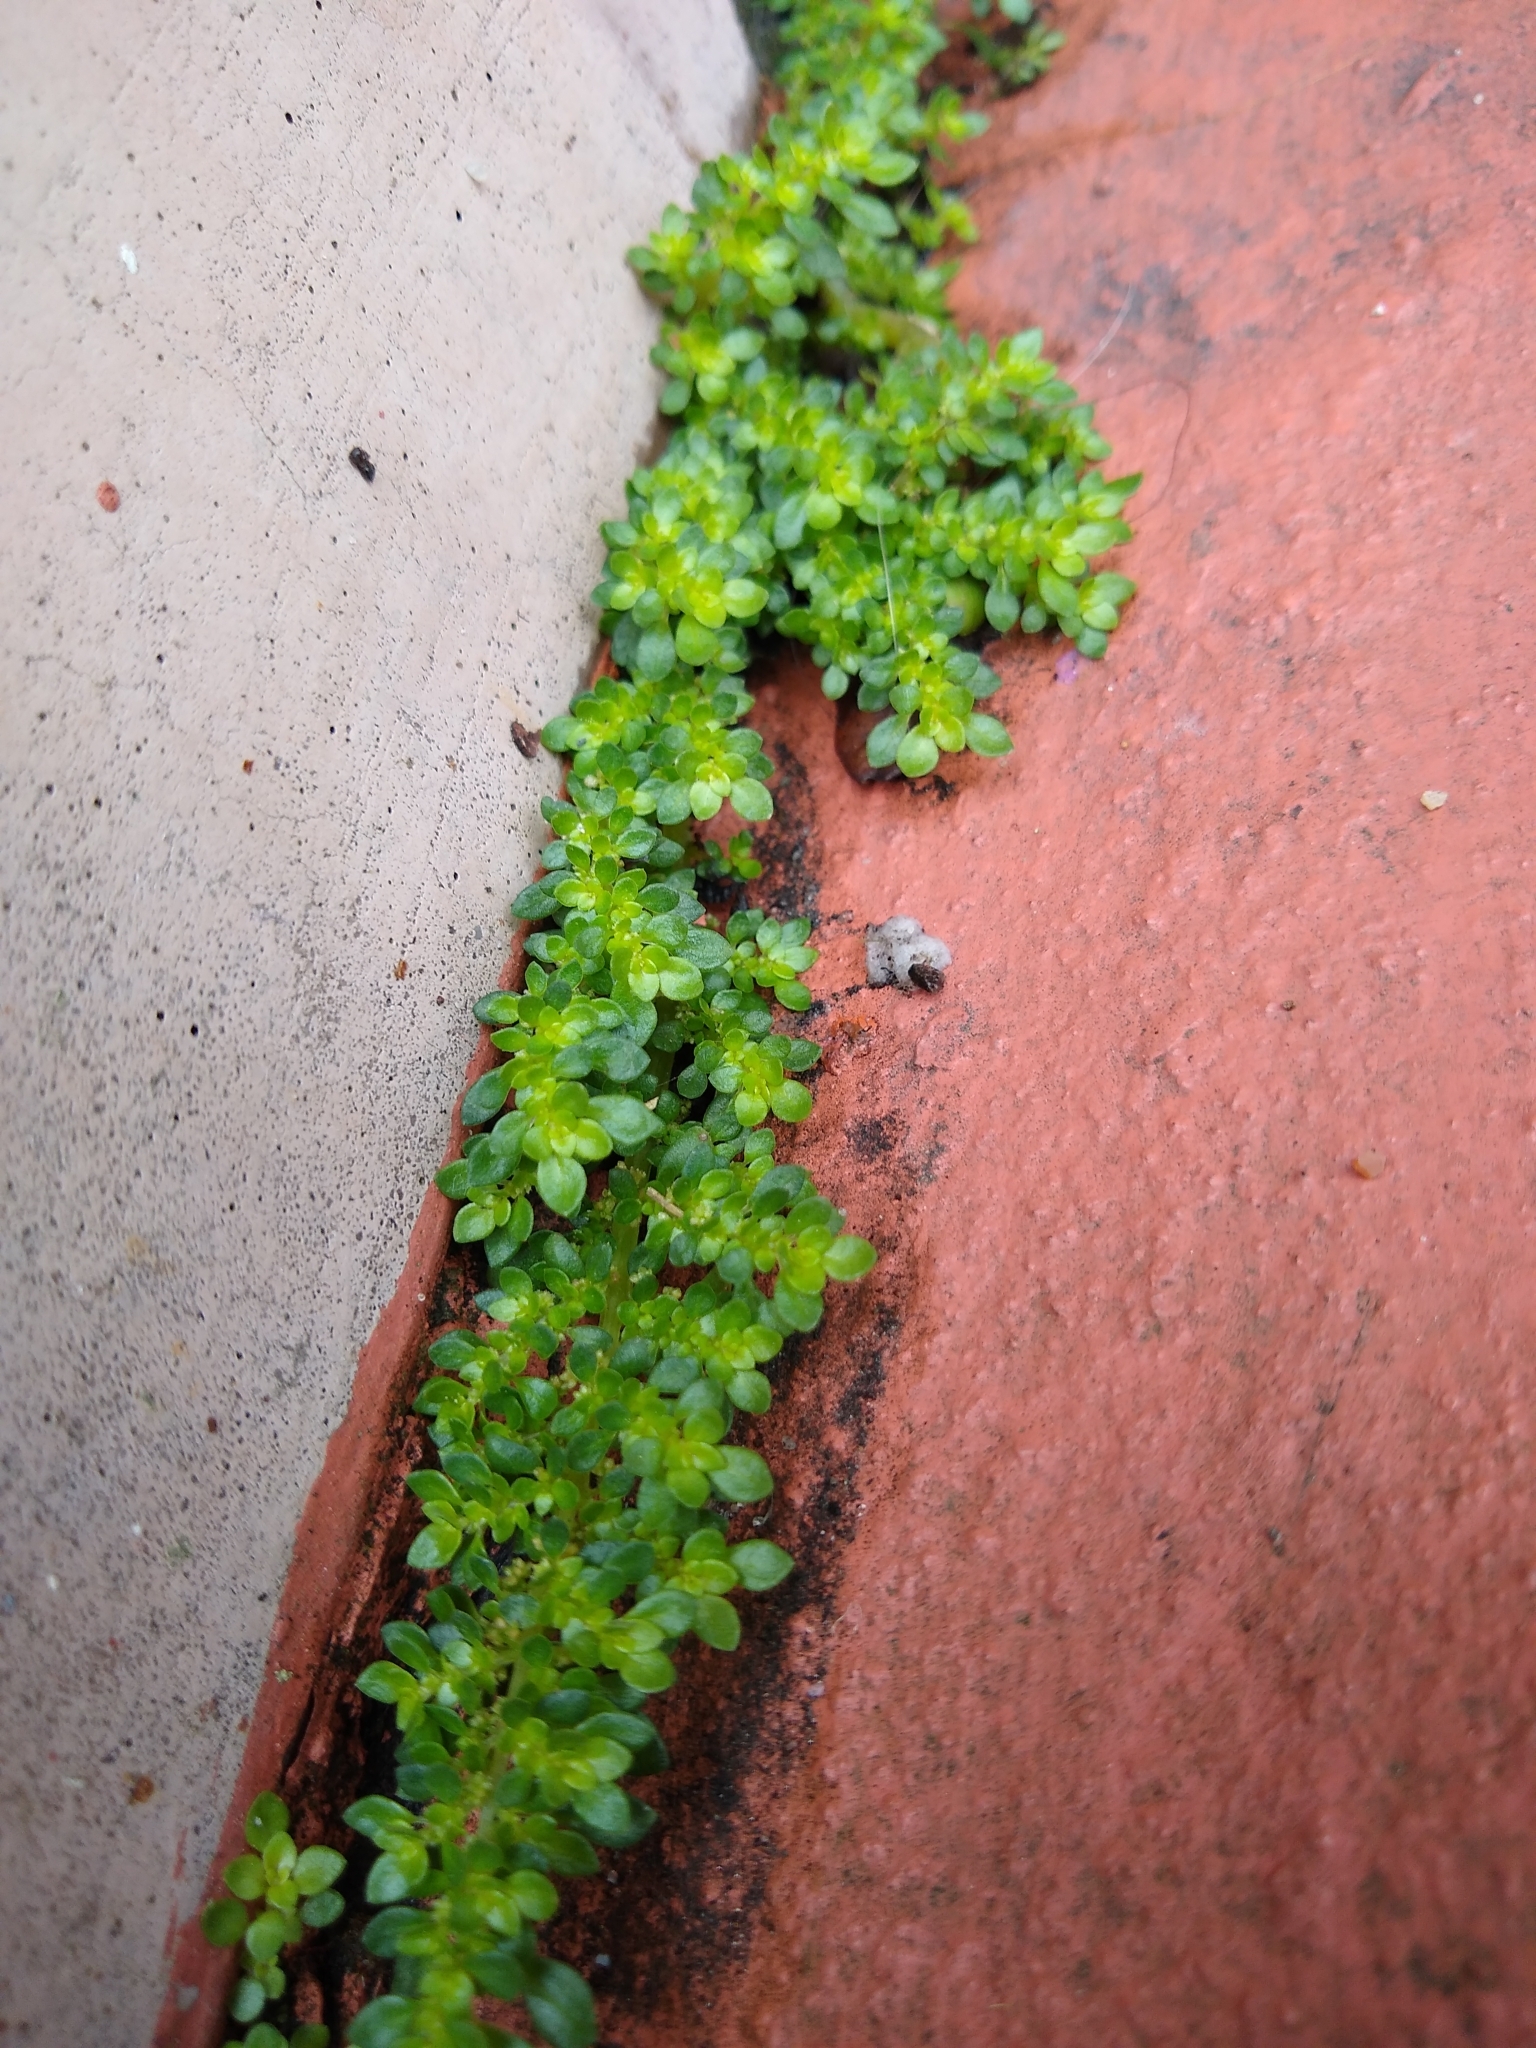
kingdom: Plantae
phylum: Tracheophyta
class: Magnoliopsida
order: Rosales
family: Urticaceae
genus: Pilea
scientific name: Pilea microphylla
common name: Artillery-plant
